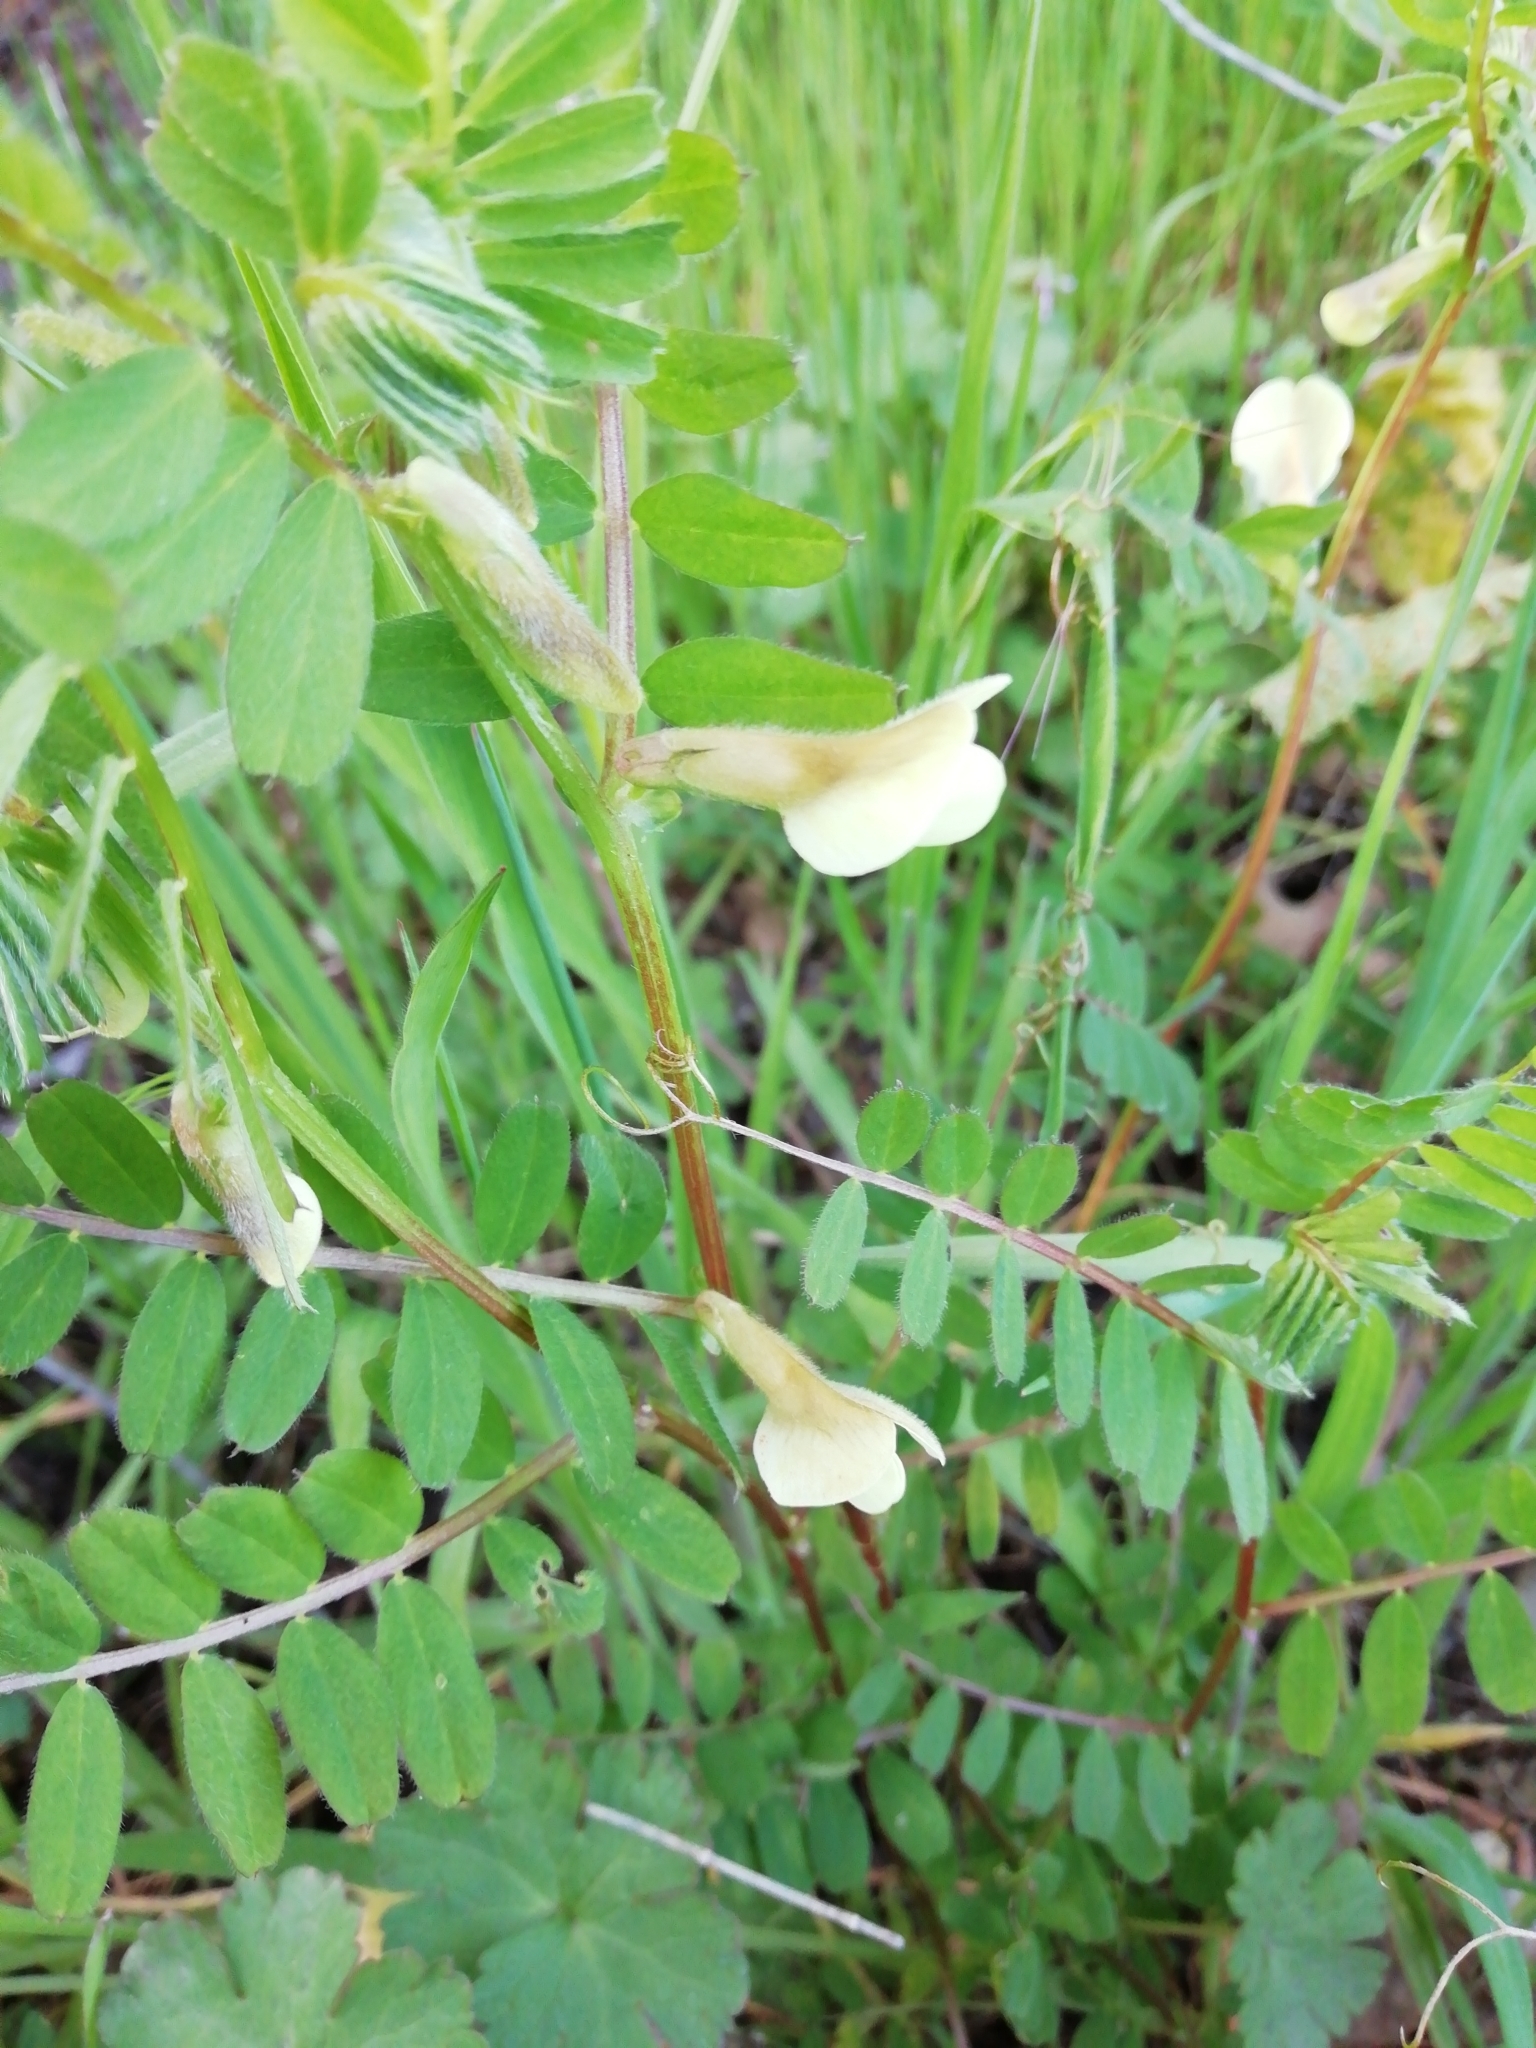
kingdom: Plantae
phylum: Tracheophyta
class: Magnoliopsida
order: Fabales
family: Fabaceae
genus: Vicia
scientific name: Vicia hybrida
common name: Hairy yellow vetch
